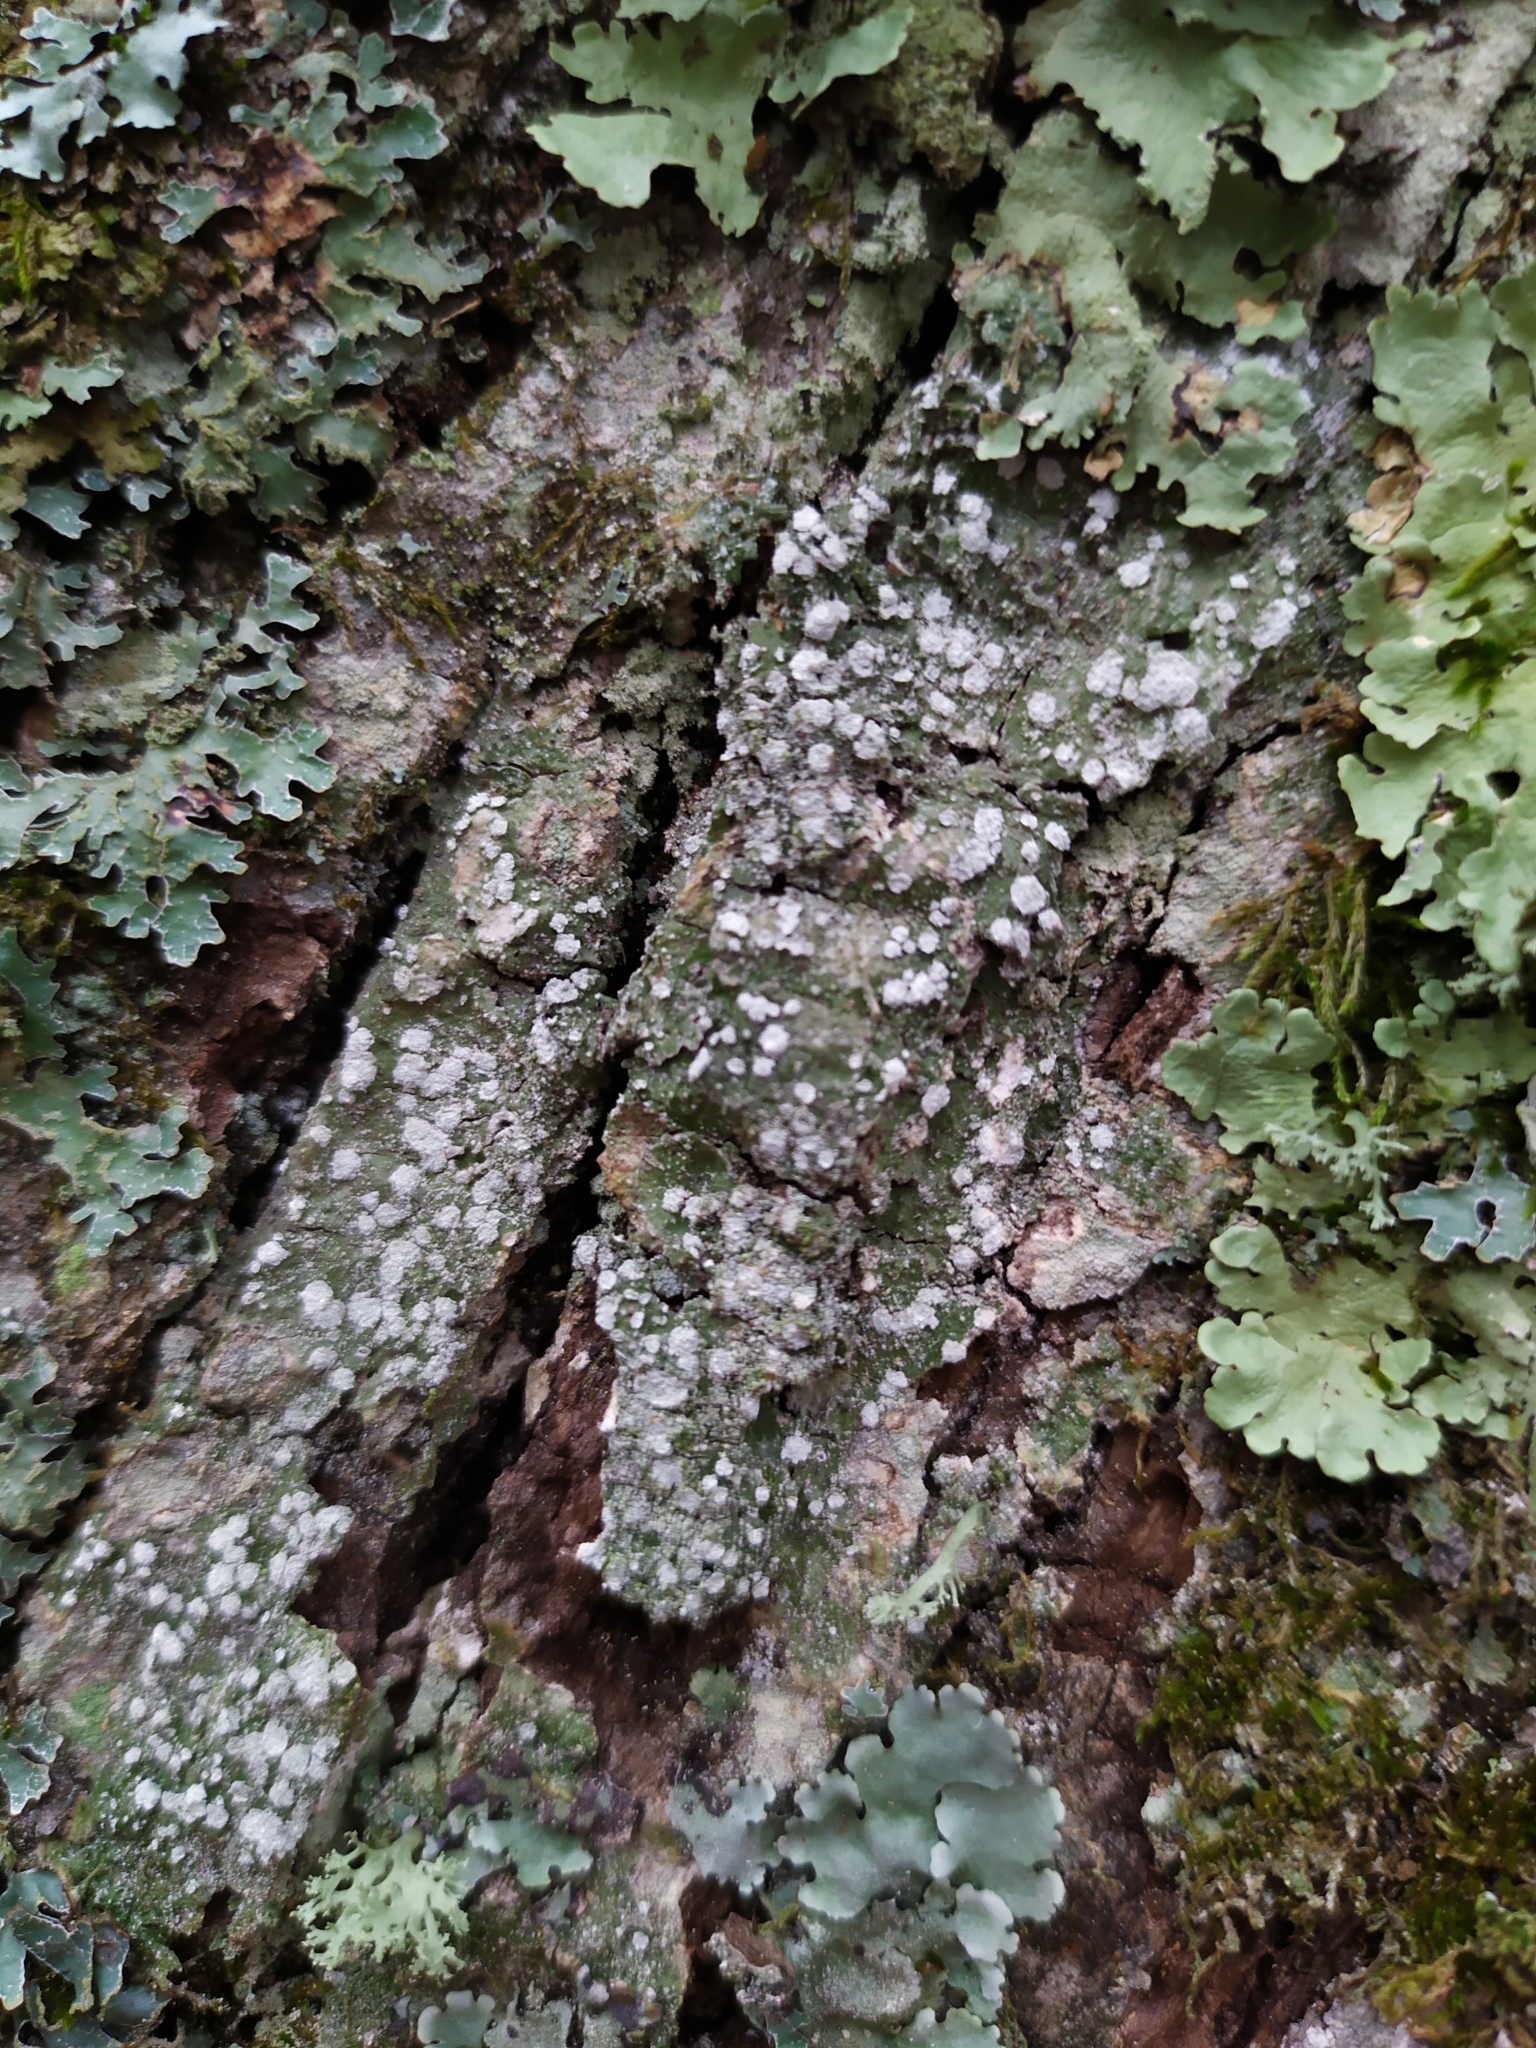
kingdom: Fungi
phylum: Ascomycota
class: Lecanoromycetes
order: Pertusariales
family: Pertusariaceae
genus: Lepra
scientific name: Lepra albescens
